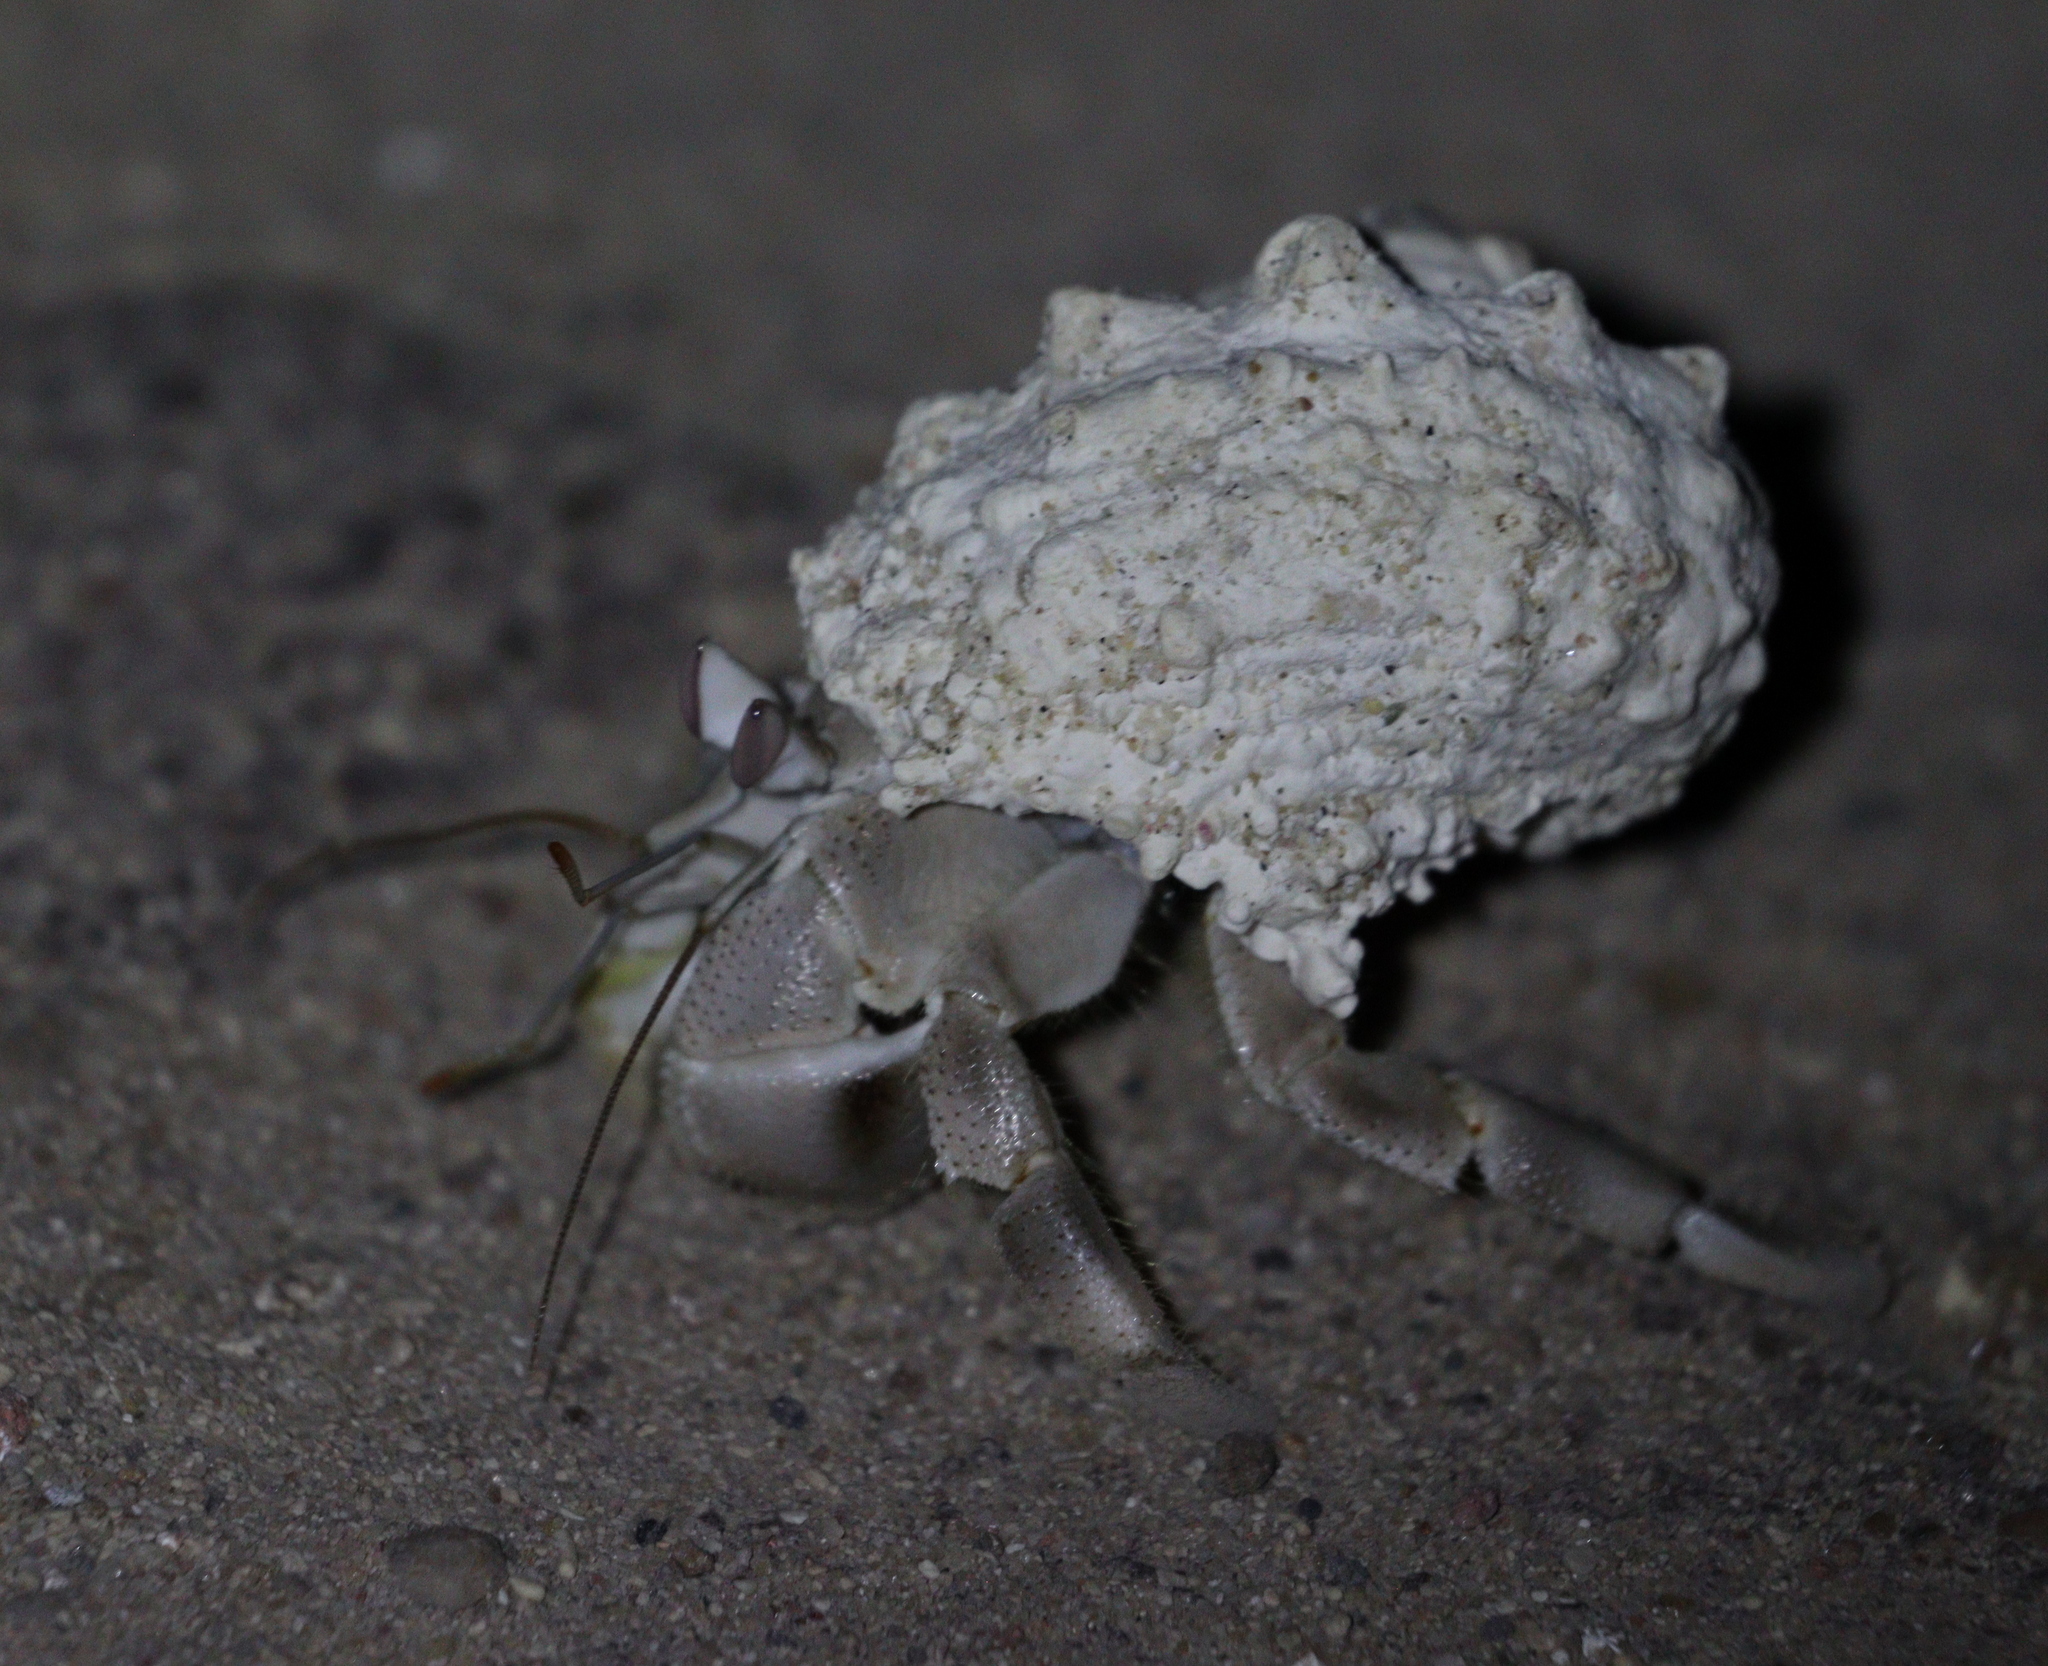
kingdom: Animalia
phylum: Arthropoda
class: Malacostraca
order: Decapoda
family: Coenobitidae
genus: Coenobita
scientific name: Coenobita scaevola
